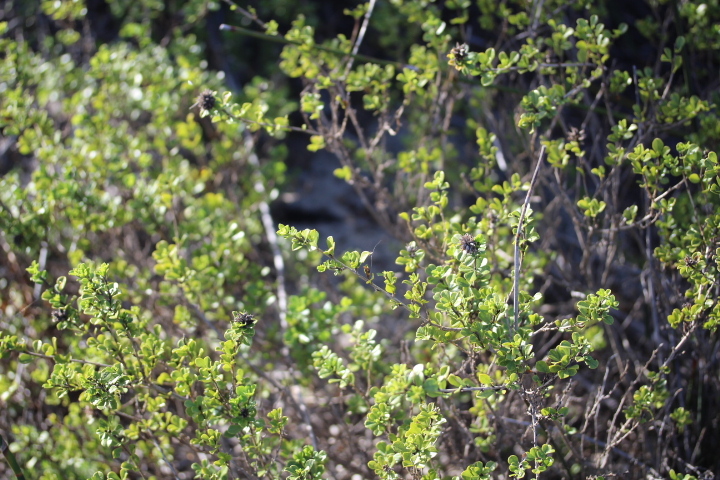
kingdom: Plantae
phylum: Tracheophyta
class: Magnoliopsida
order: Fabales
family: Fabaceae
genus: Psoralea
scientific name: Psoralea bracteolata
